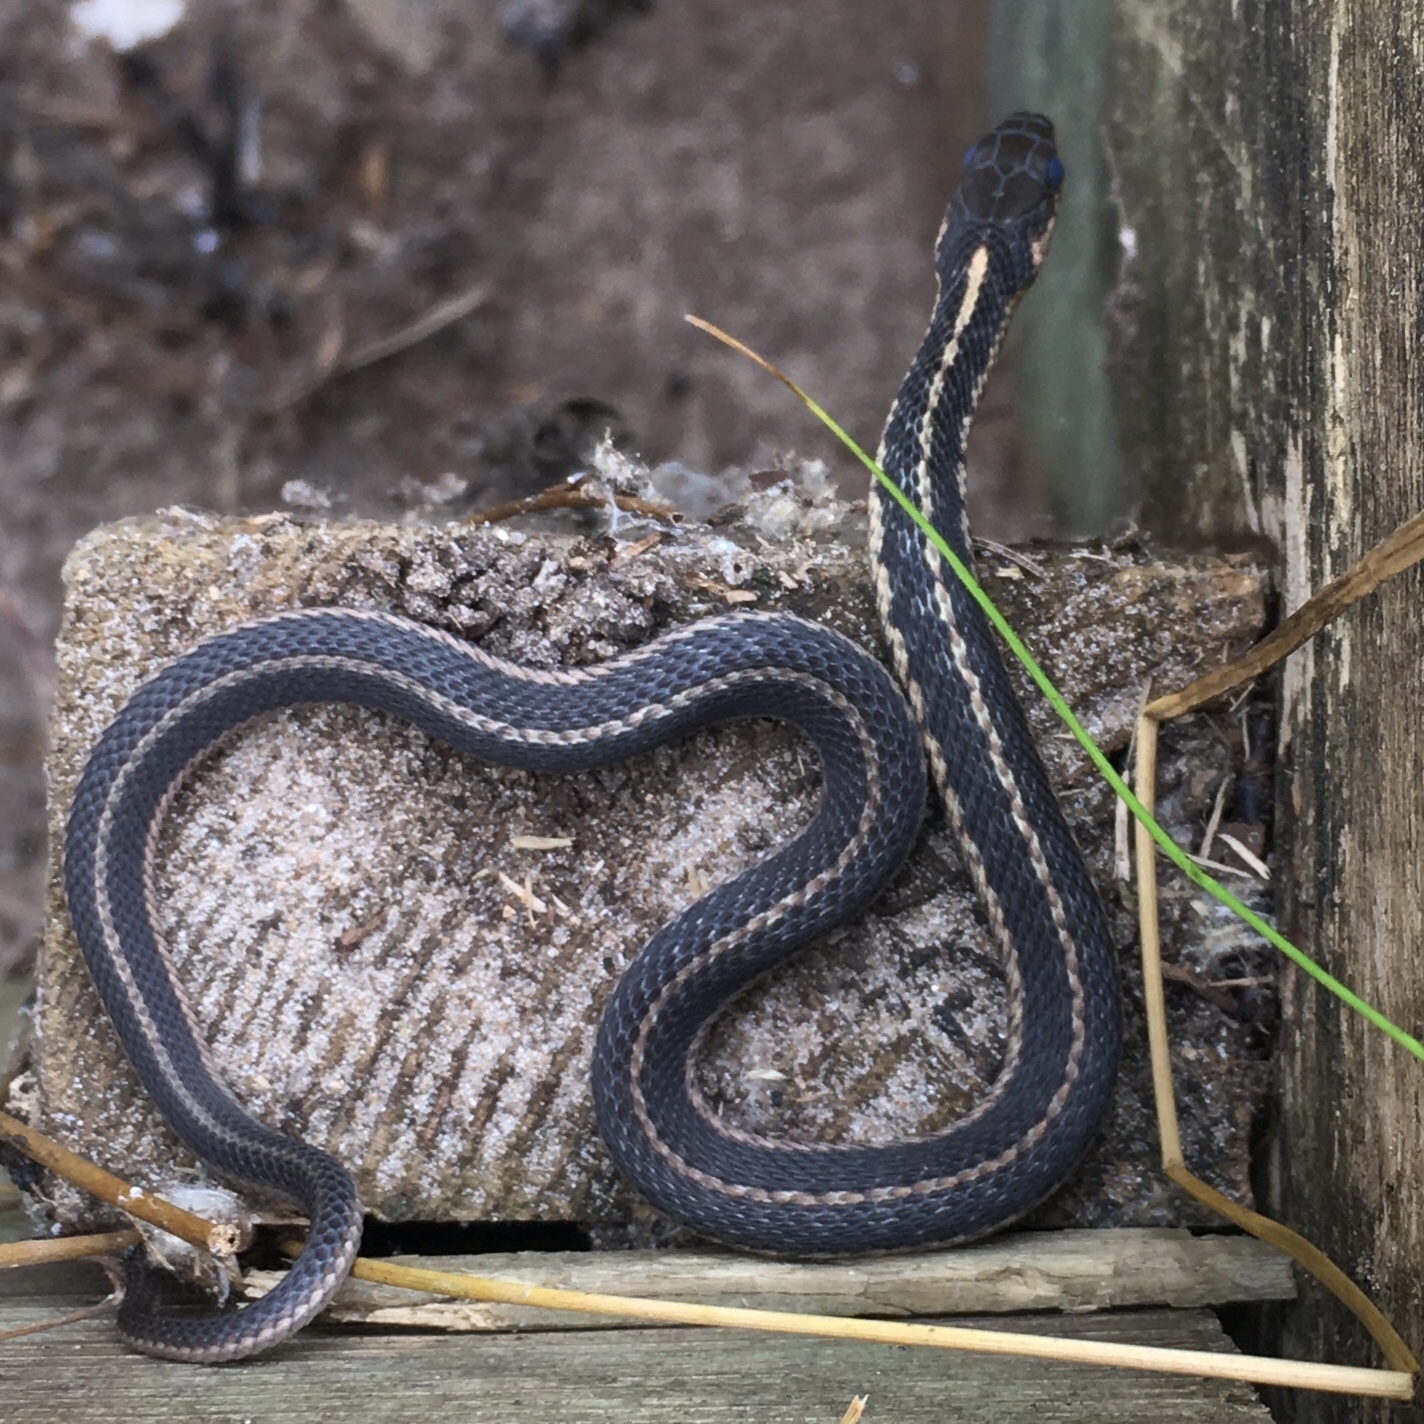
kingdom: Animalia
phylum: Chordata
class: Squamata
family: Colubridae
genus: Thamnophis
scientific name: Thamnophis sirtalis
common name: Common garter snake
